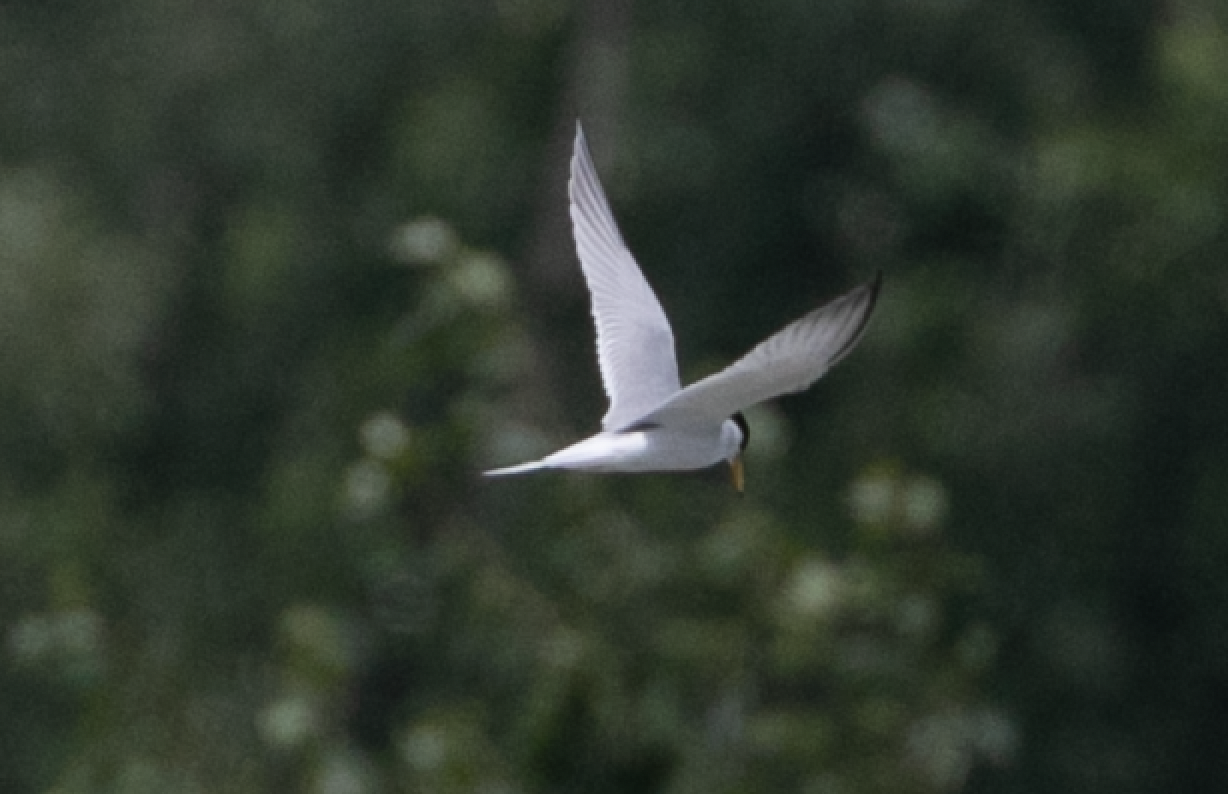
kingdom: Animalia
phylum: Chordata
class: Aves
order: Charadriiformes
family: Laridae
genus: Sternula
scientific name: Sternula albifrons
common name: Little tern
